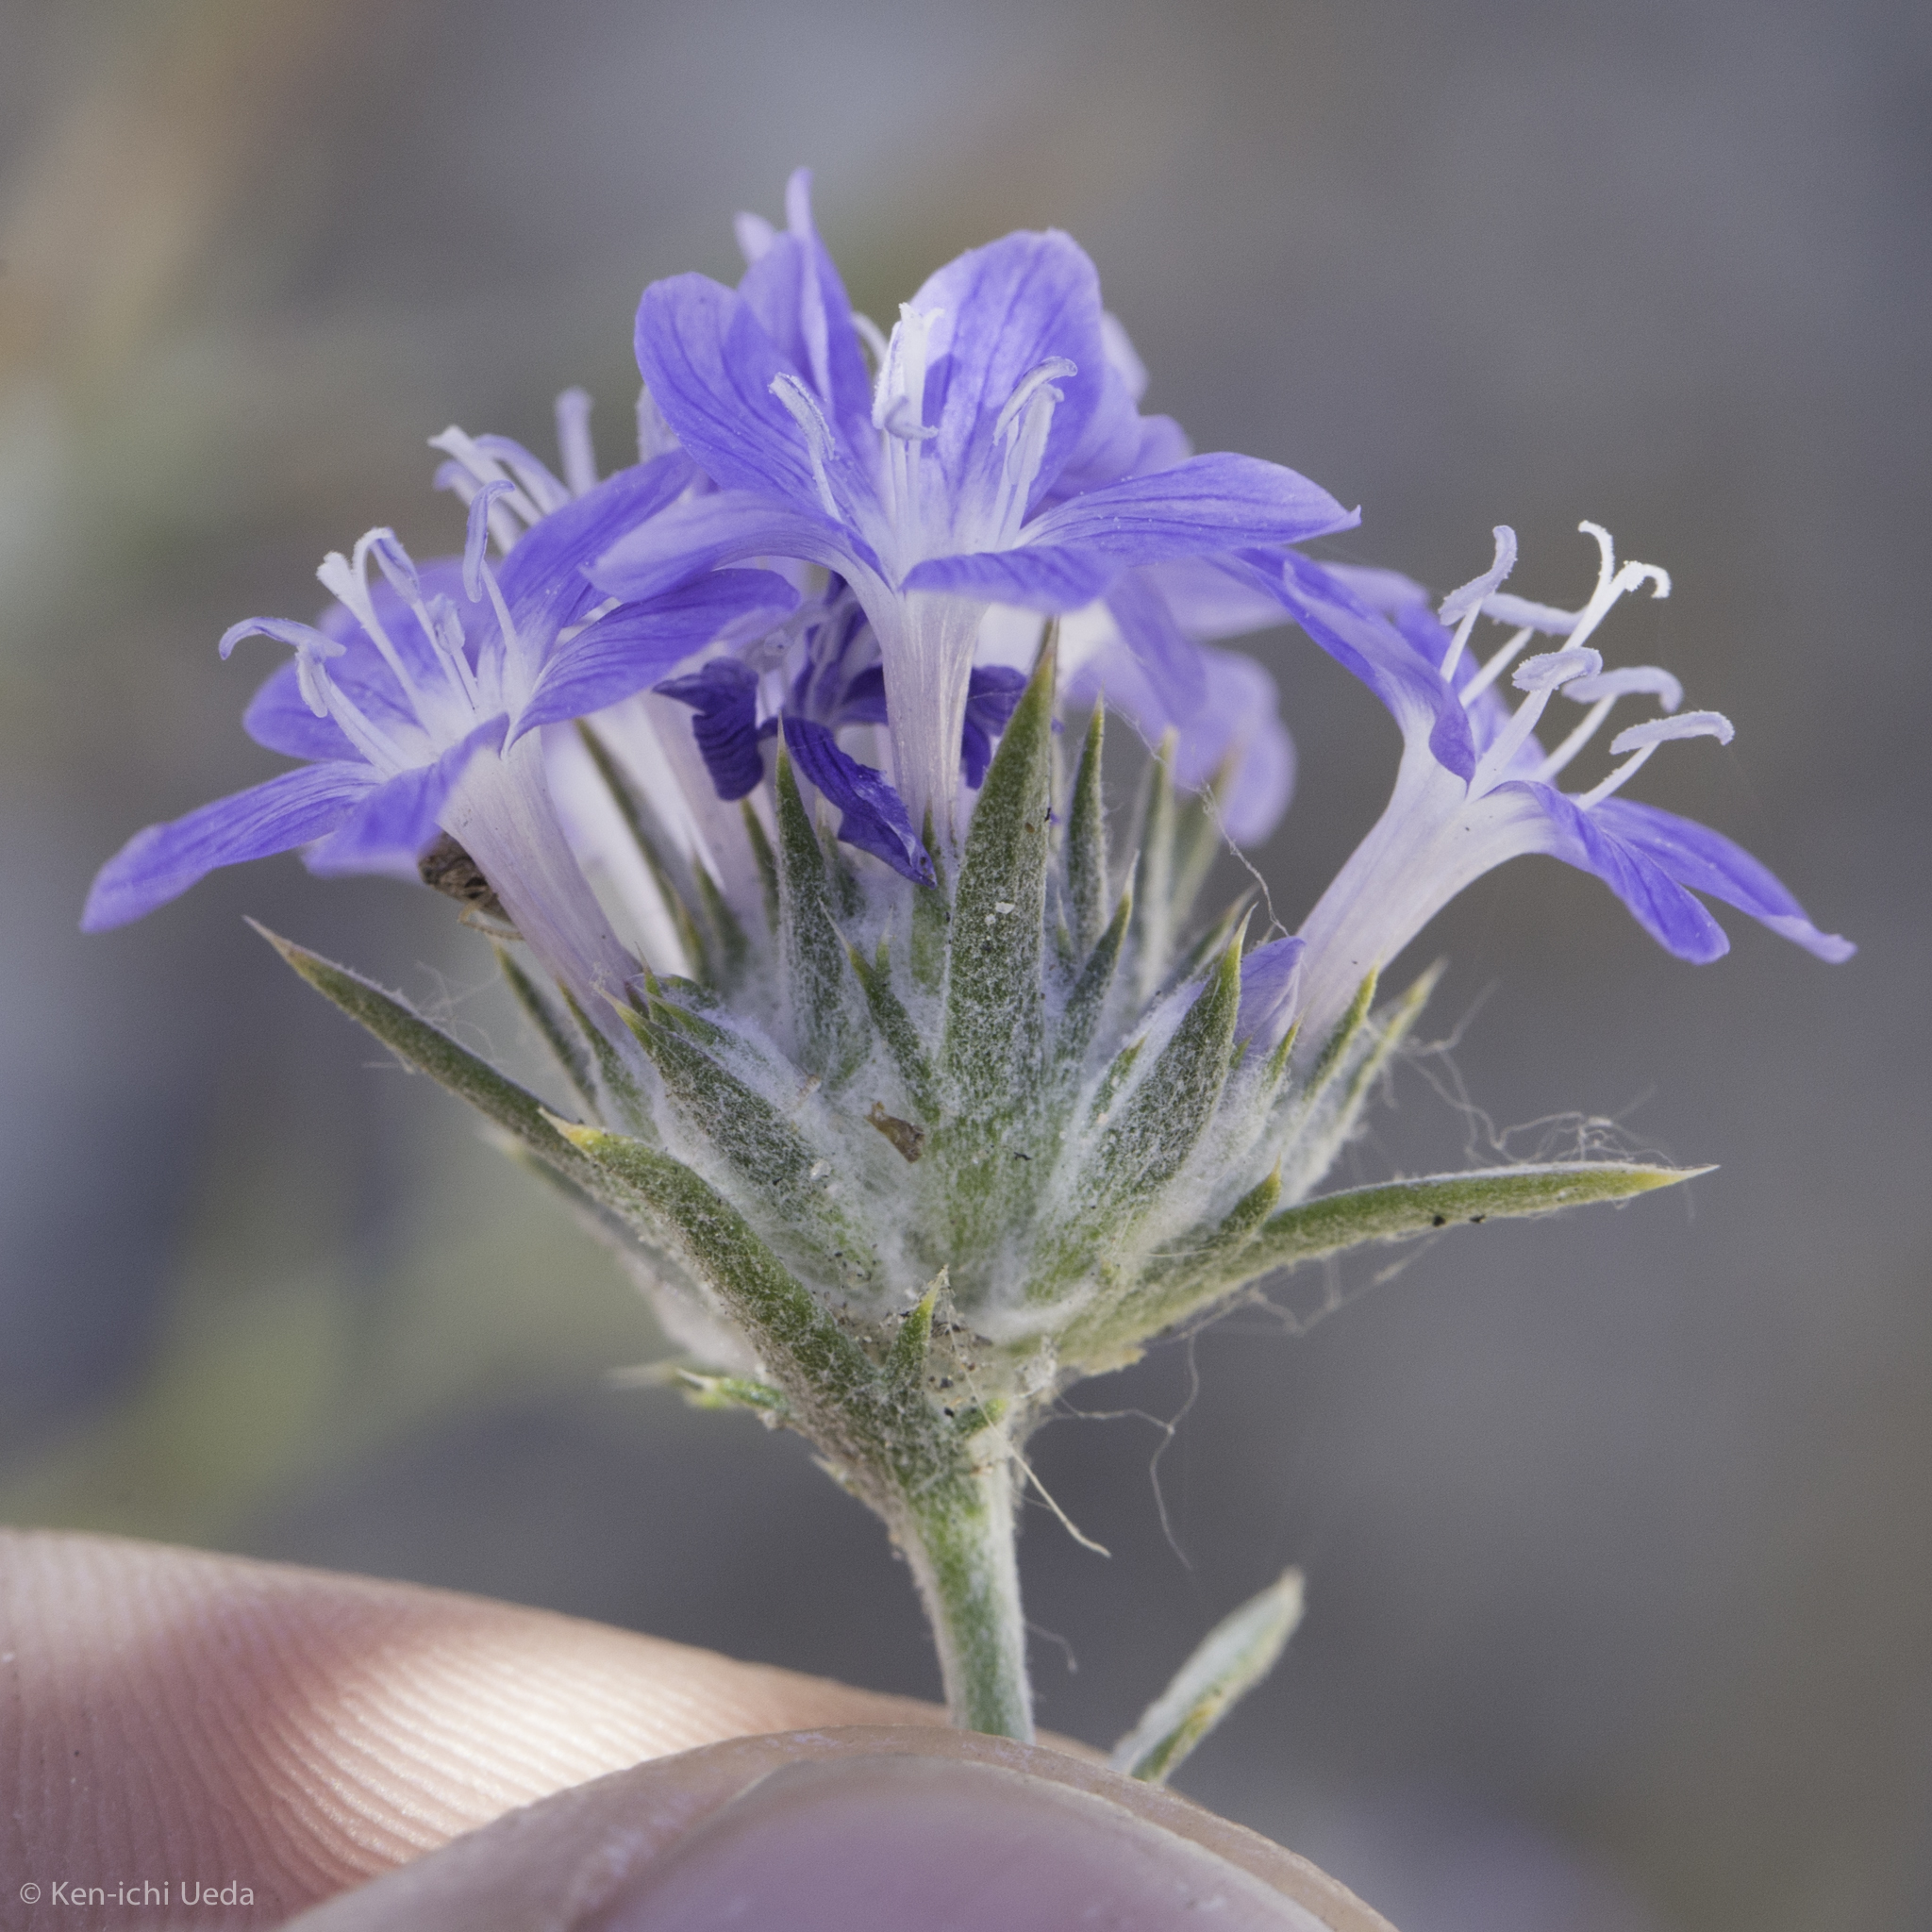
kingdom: Plantae
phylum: Tracheophyta
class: Magnoliopsida
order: Ericales
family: Polemoniaceae
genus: Eriastrum
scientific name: Eriastrum densifolium
